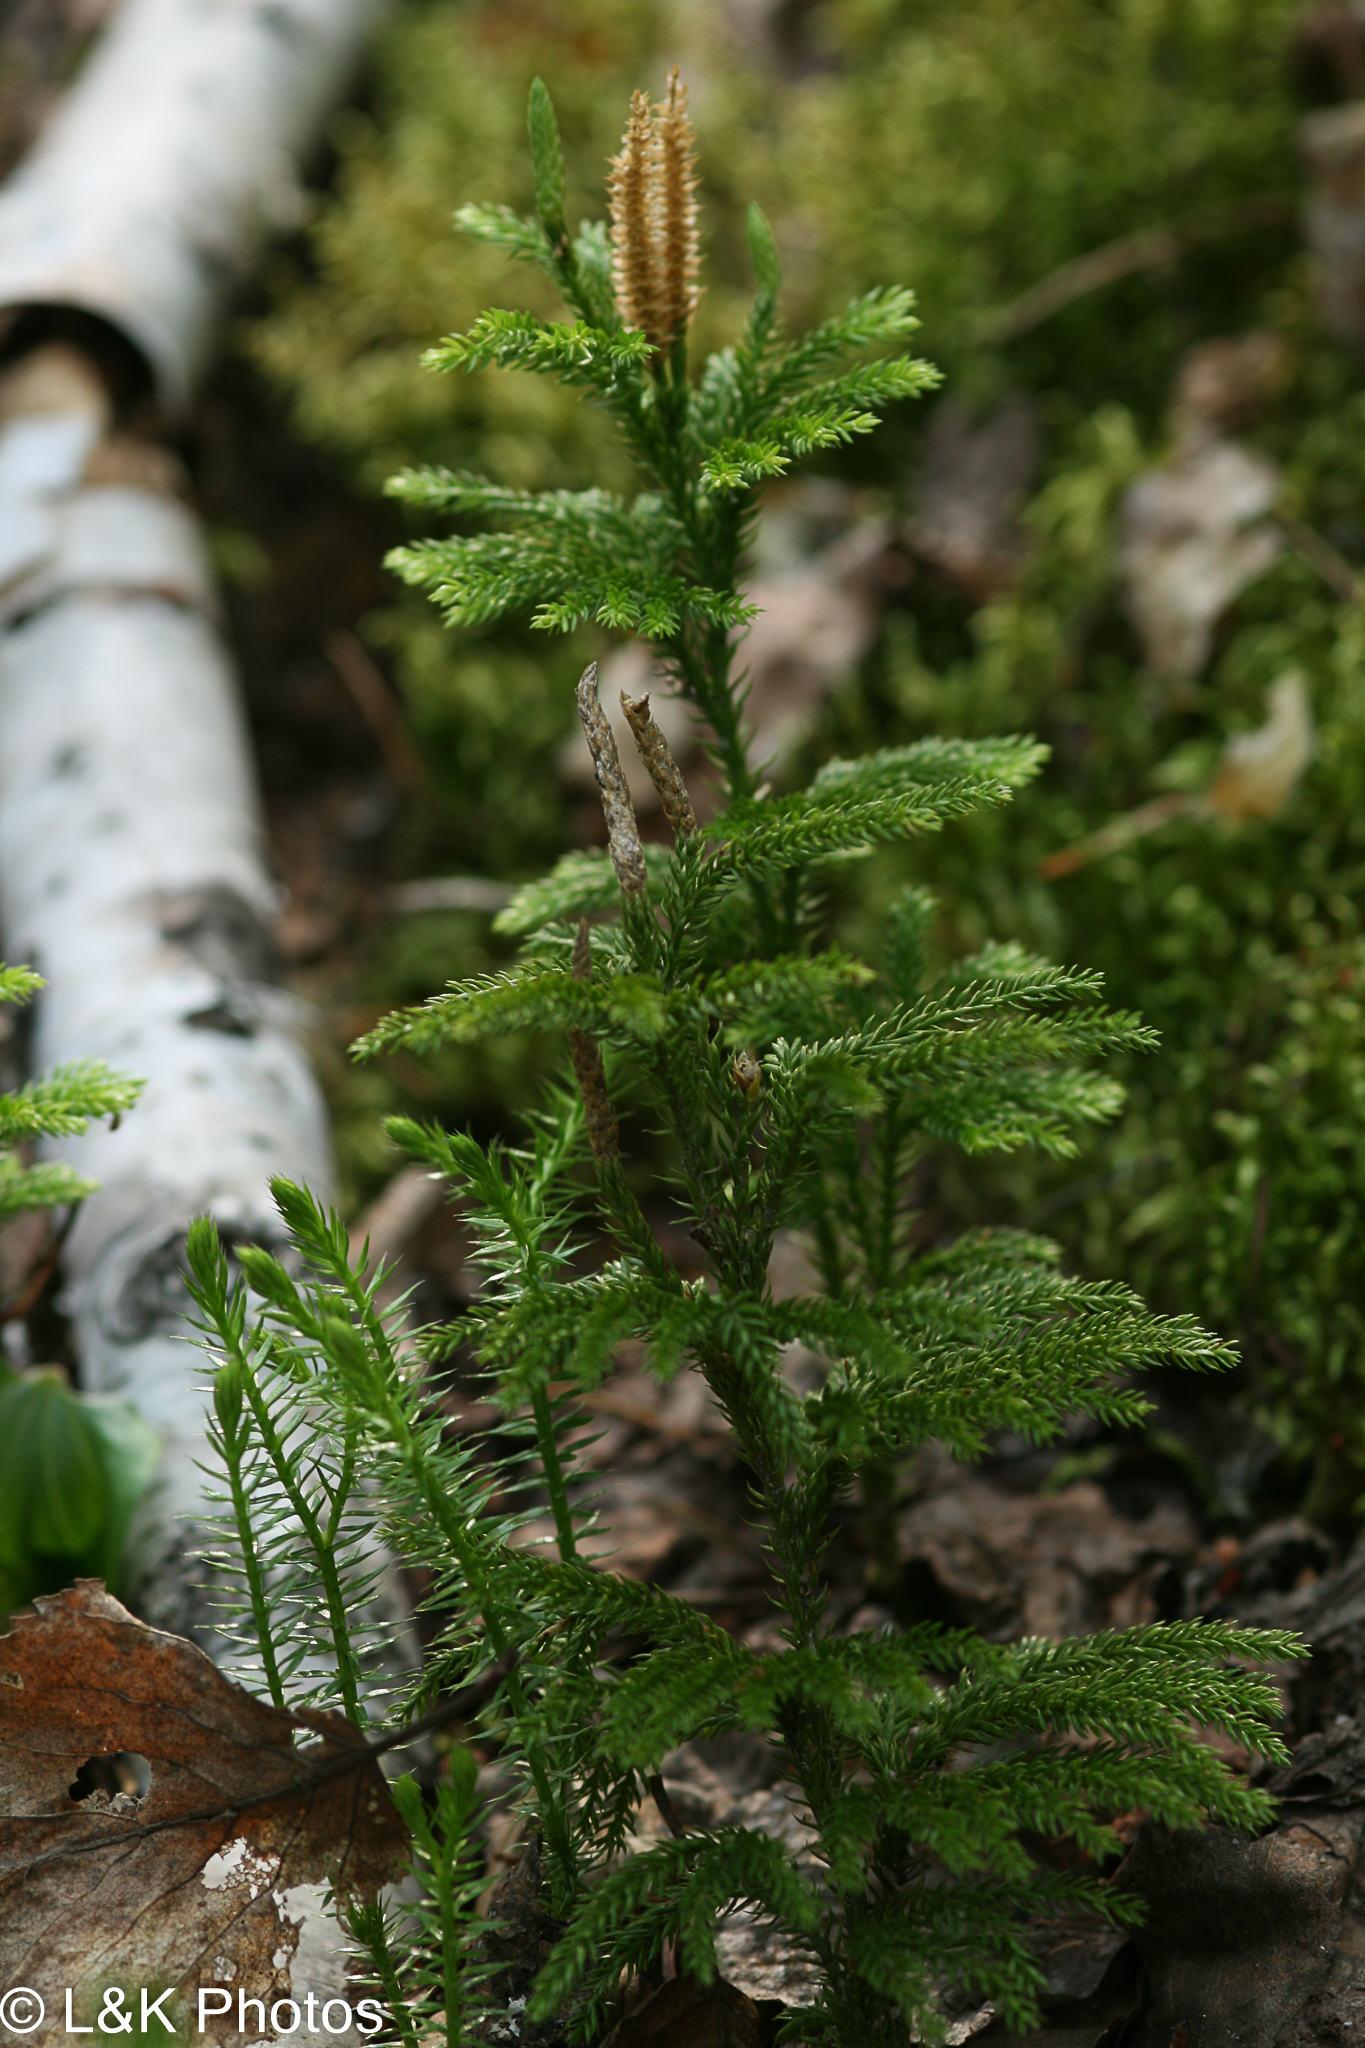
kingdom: Plantae
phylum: Tracheophyta
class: Lycopodiopsida
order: Lycopodiales
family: Lycopodiaceae
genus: Dendrolycopodium
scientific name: Dendrolycopodium dendroideum
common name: Northern tree-clubmoss
